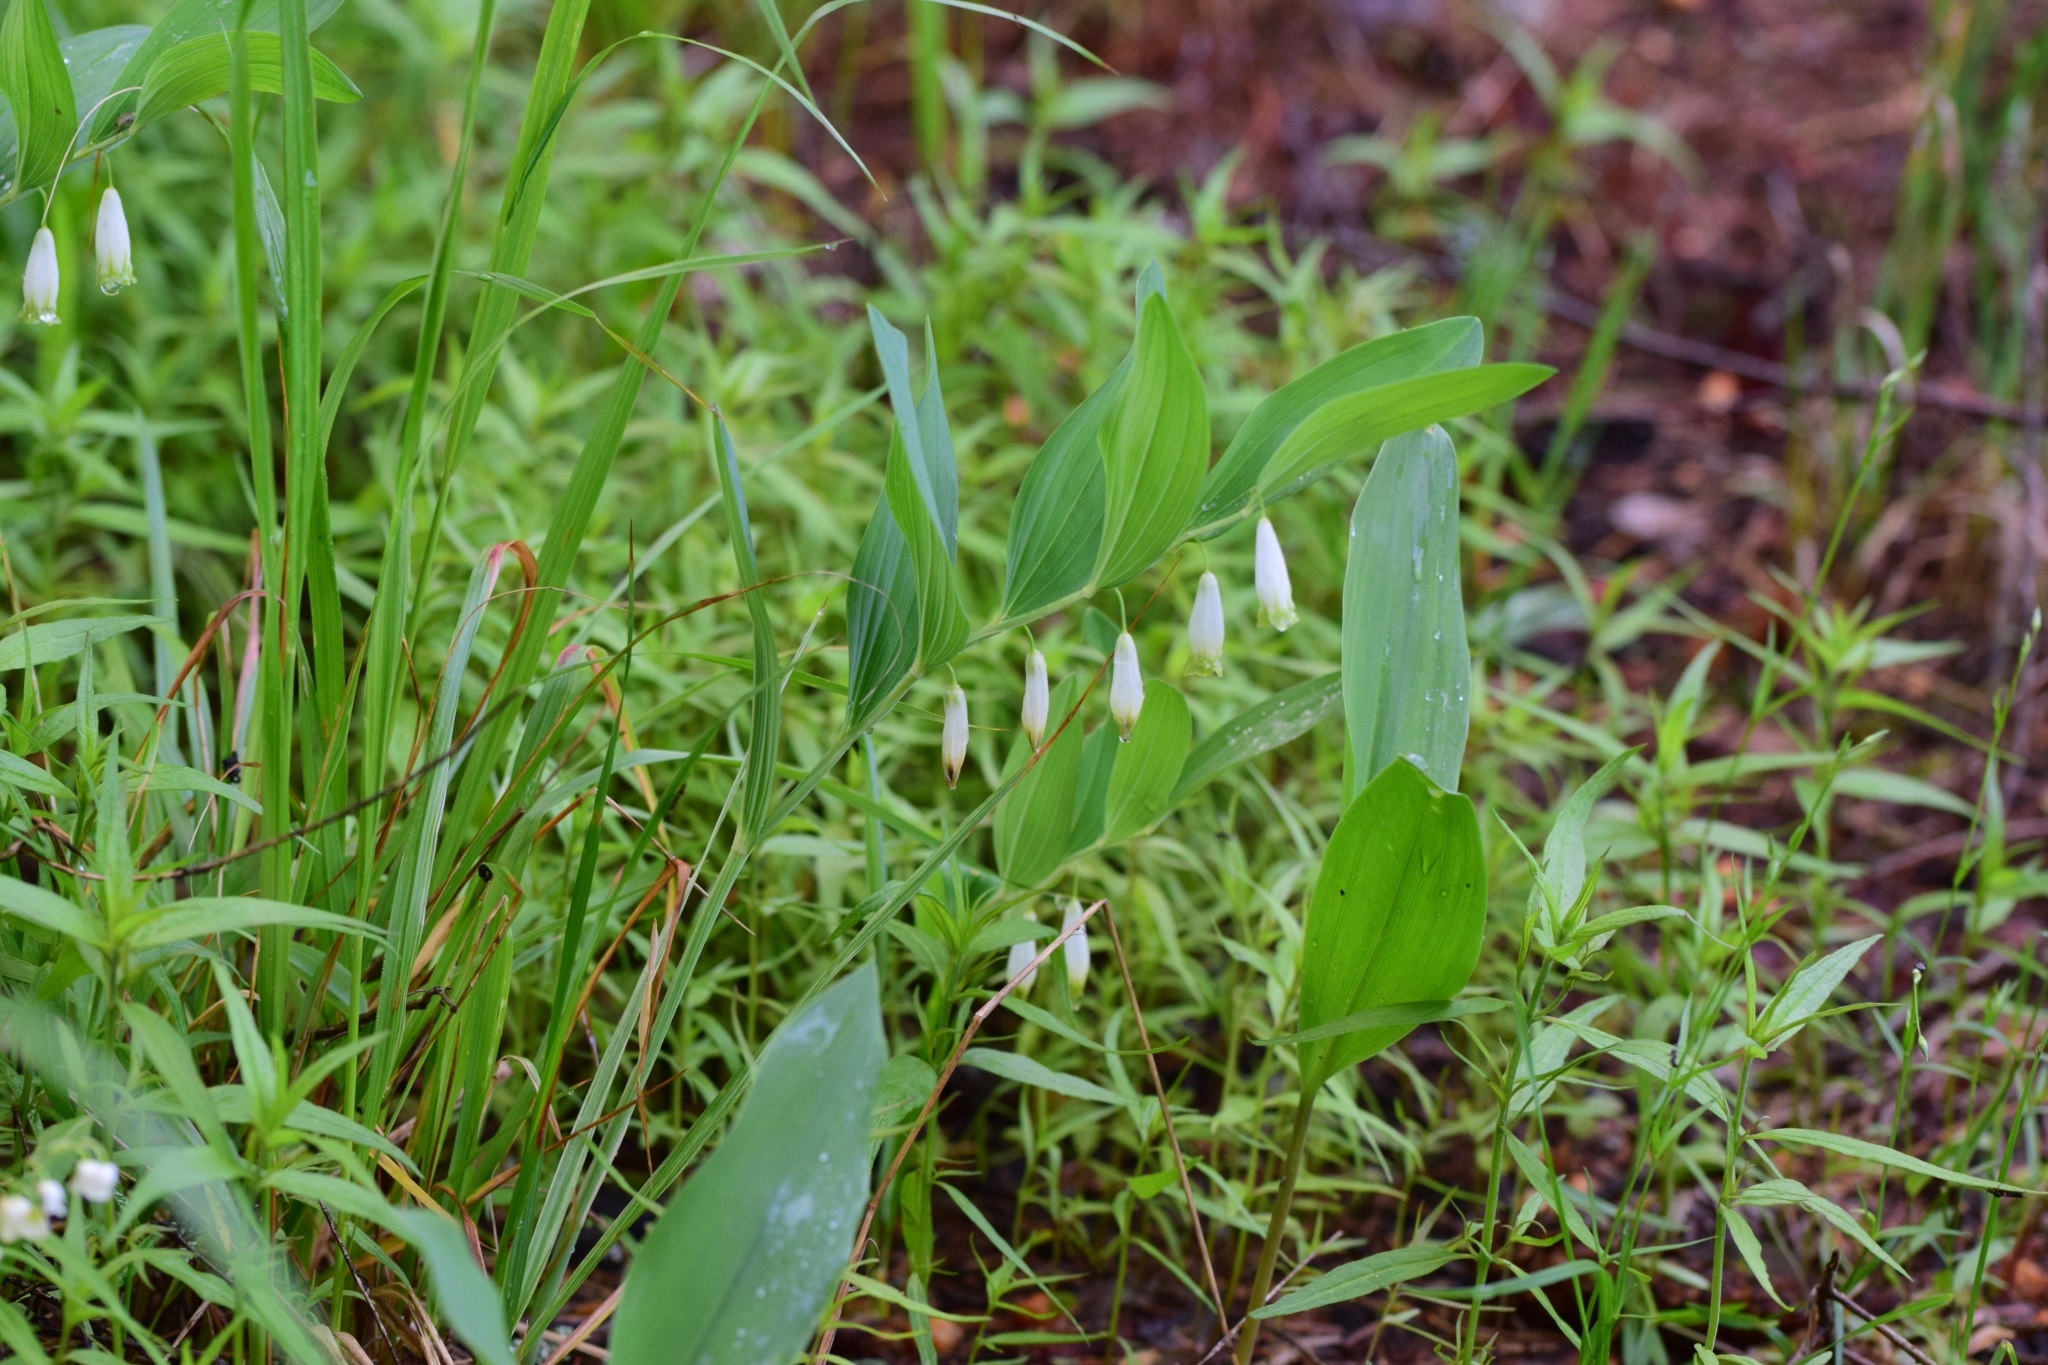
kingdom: Plantae
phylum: Tracheophyta
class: Liliopsida
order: Asparagales
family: Asparagaceae
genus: Polygonatum
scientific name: Polygonatum odoratum
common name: Angular solomon's-seal
